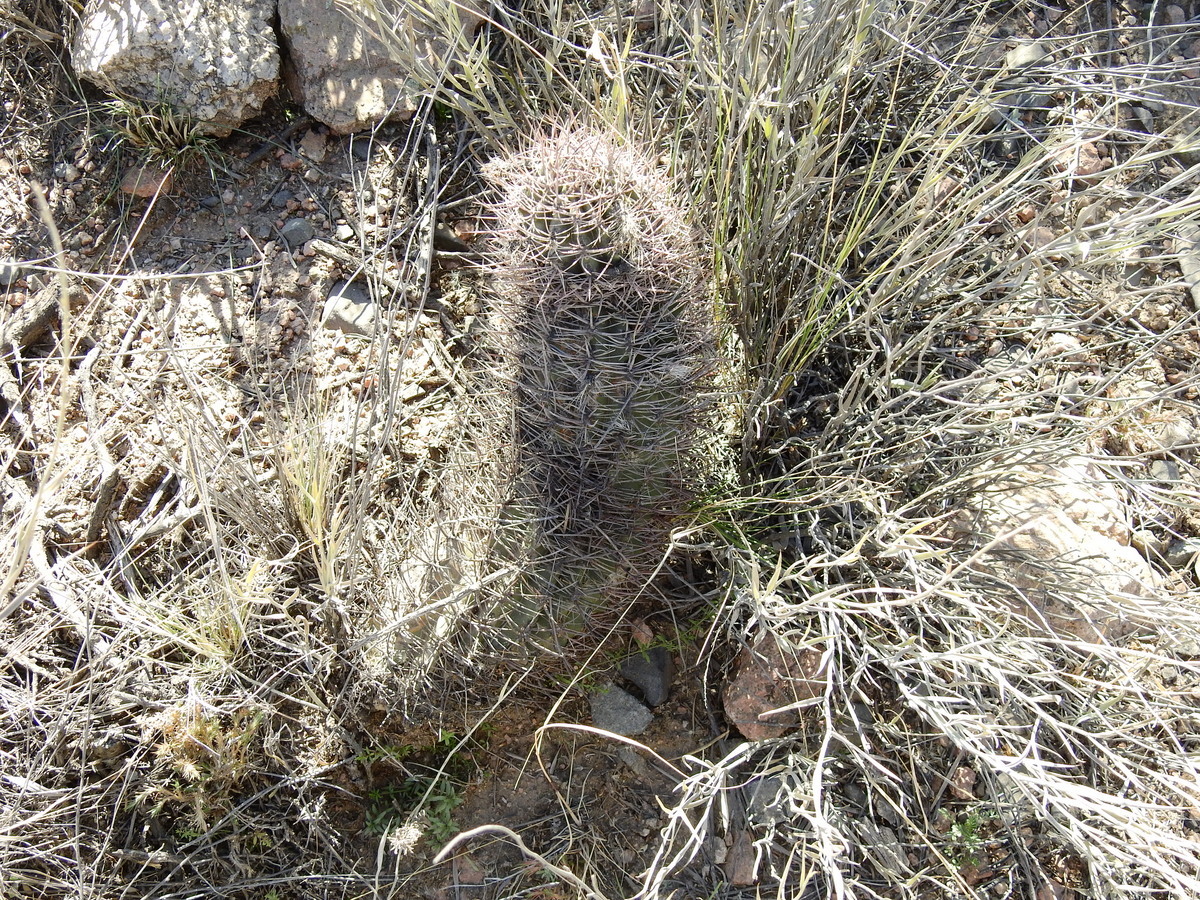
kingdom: Plantae
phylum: Tracheophyta
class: Magnoliopsida
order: Caryophyllales
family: Cactaceae
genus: Eriosyce
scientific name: Eriosyce strausiana
